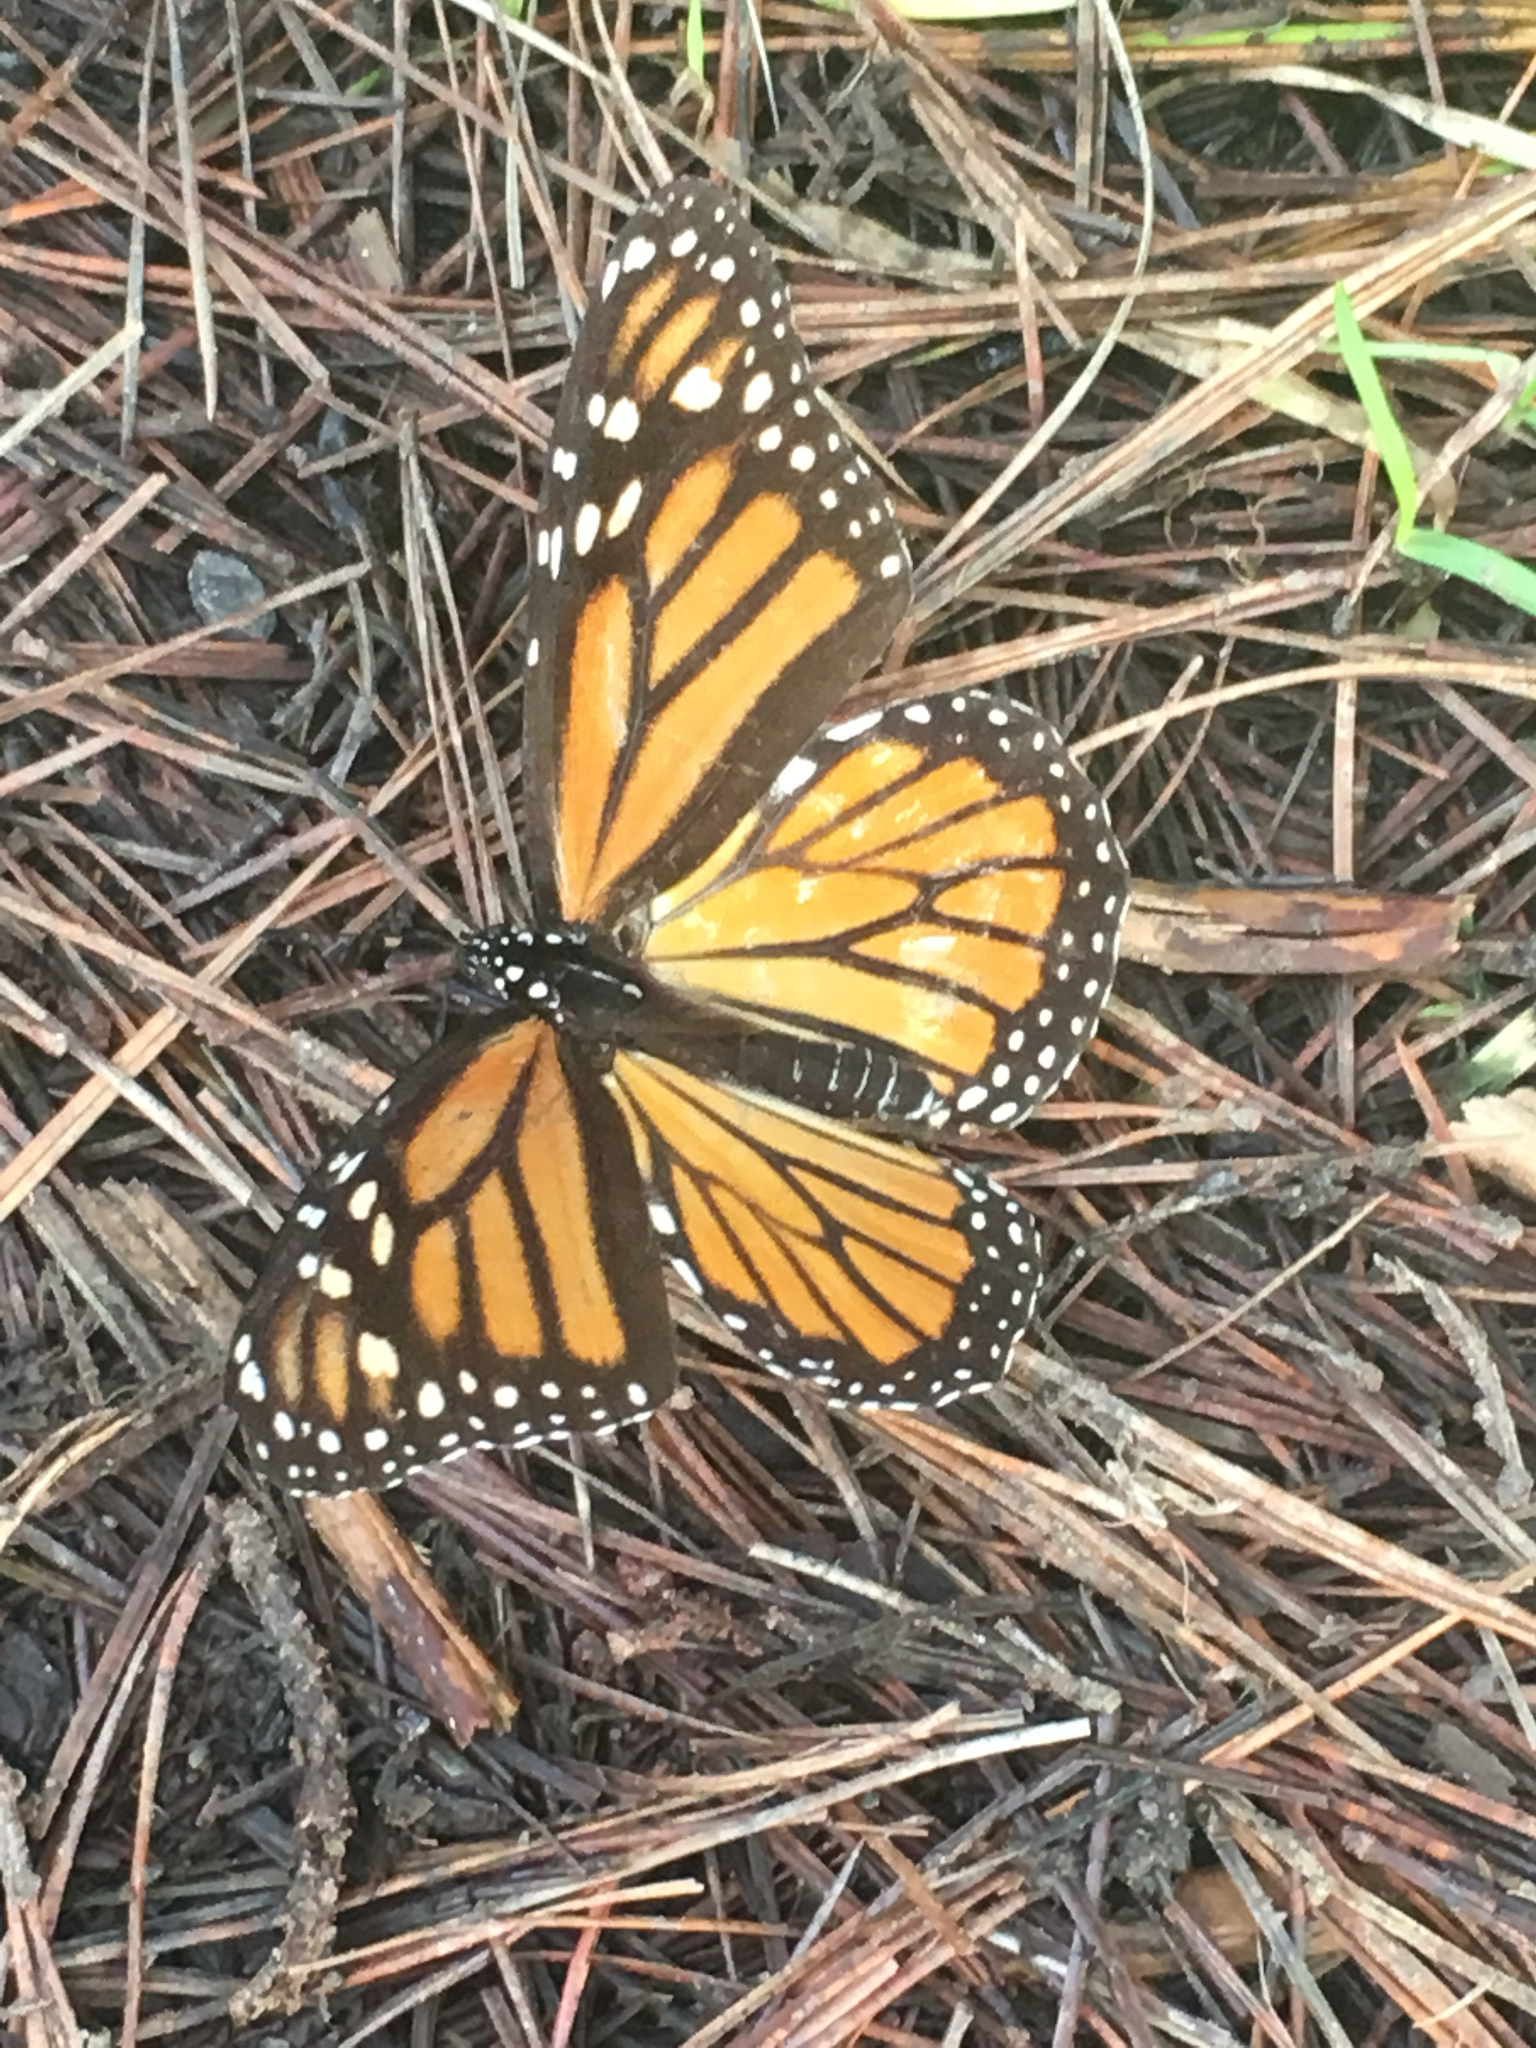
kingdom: Animalia
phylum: Arthropoda
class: Insecta
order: Lepidoptera
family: Nymphalidae
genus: Danaus
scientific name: Danaus plexippus
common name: Monarch
